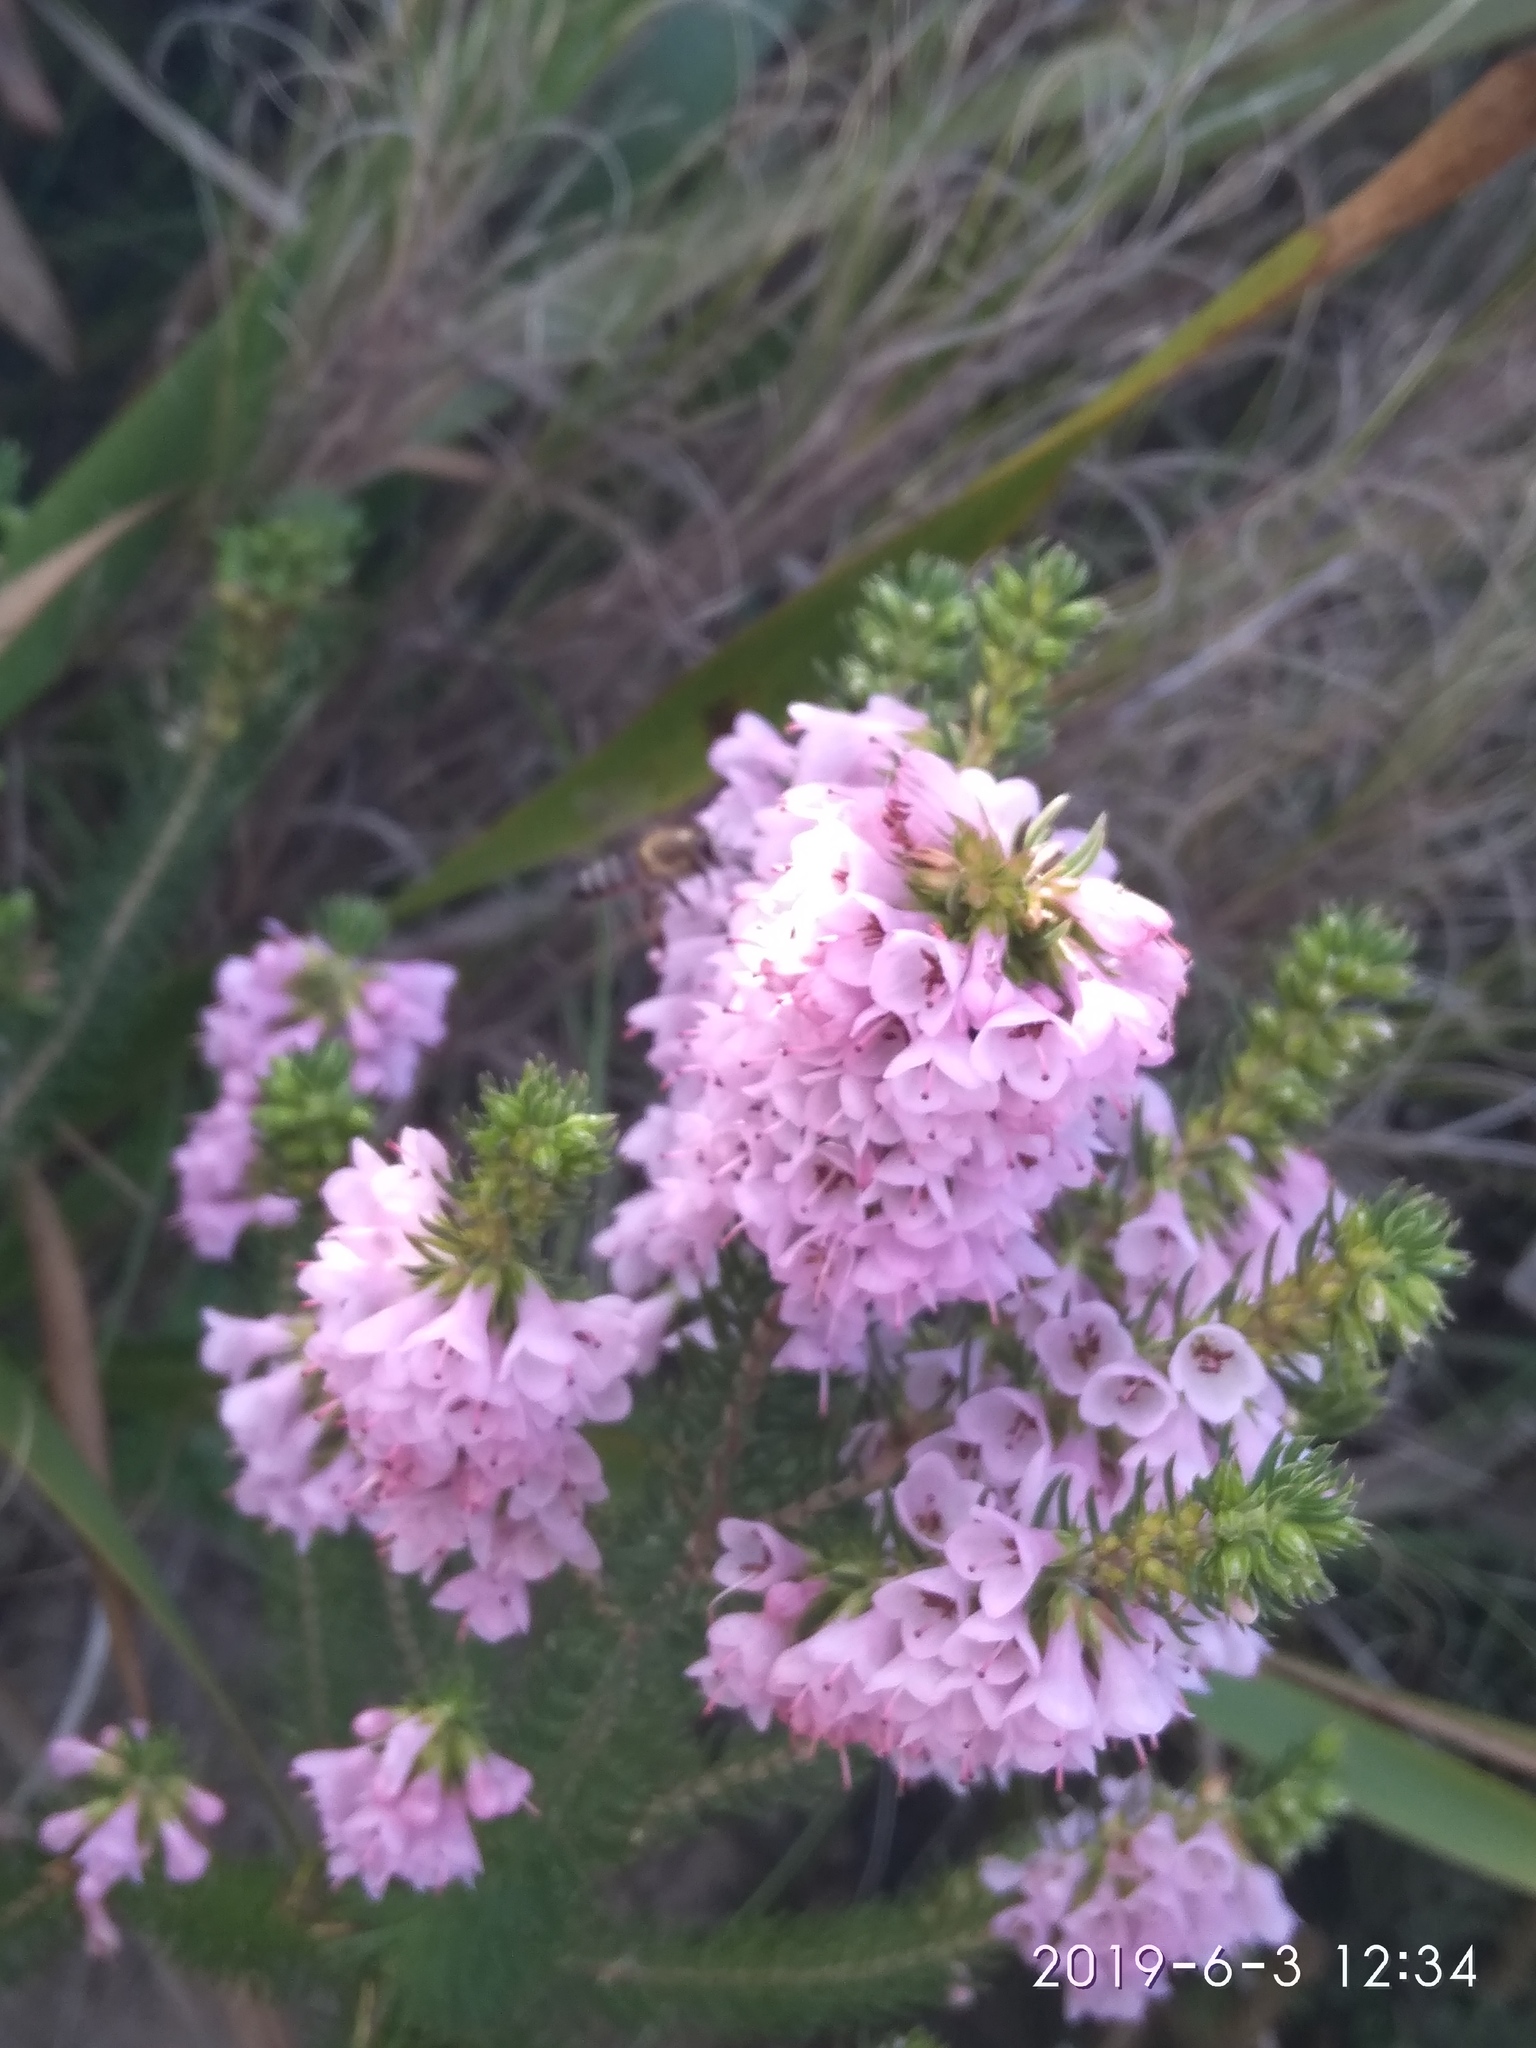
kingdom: Animalia
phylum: Arthropoda
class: Insecta
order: Hymenoptera
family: Apidae
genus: Apis
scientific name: Apis mellifera
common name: Honey bee
